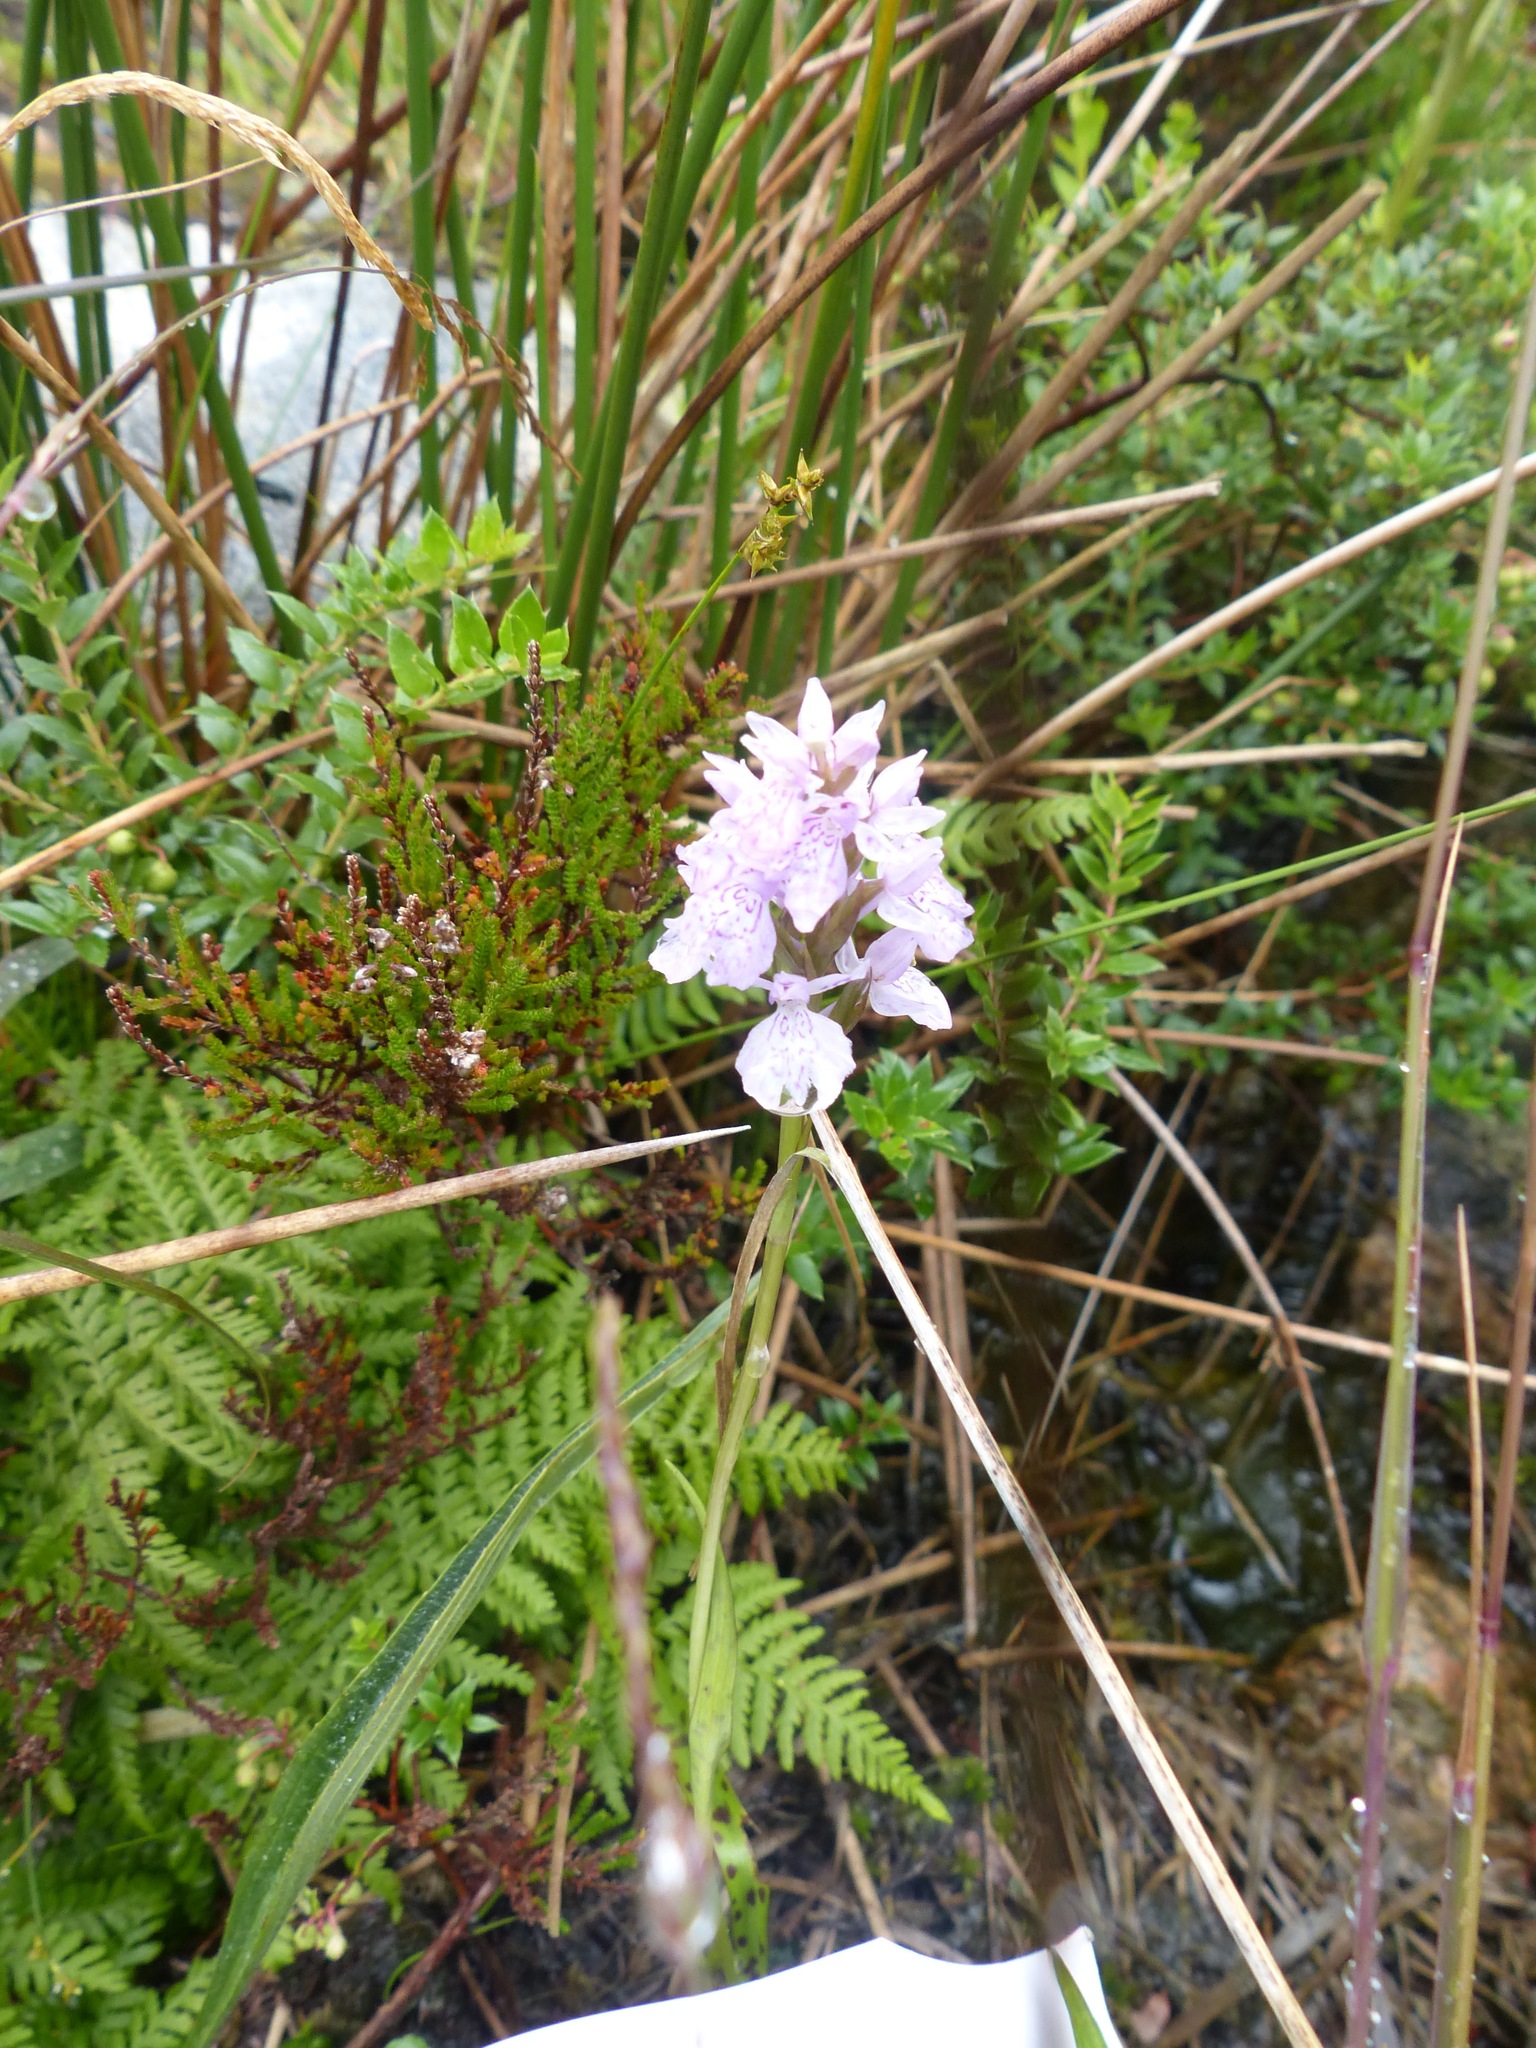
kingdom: Plantae
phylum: Tracheophyta
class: Liliopsida
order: Asparagales
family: Orchidaceae
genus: Dactylorhiza
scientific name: Dactylorhiza maculata
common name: Heath spotted-orchid
